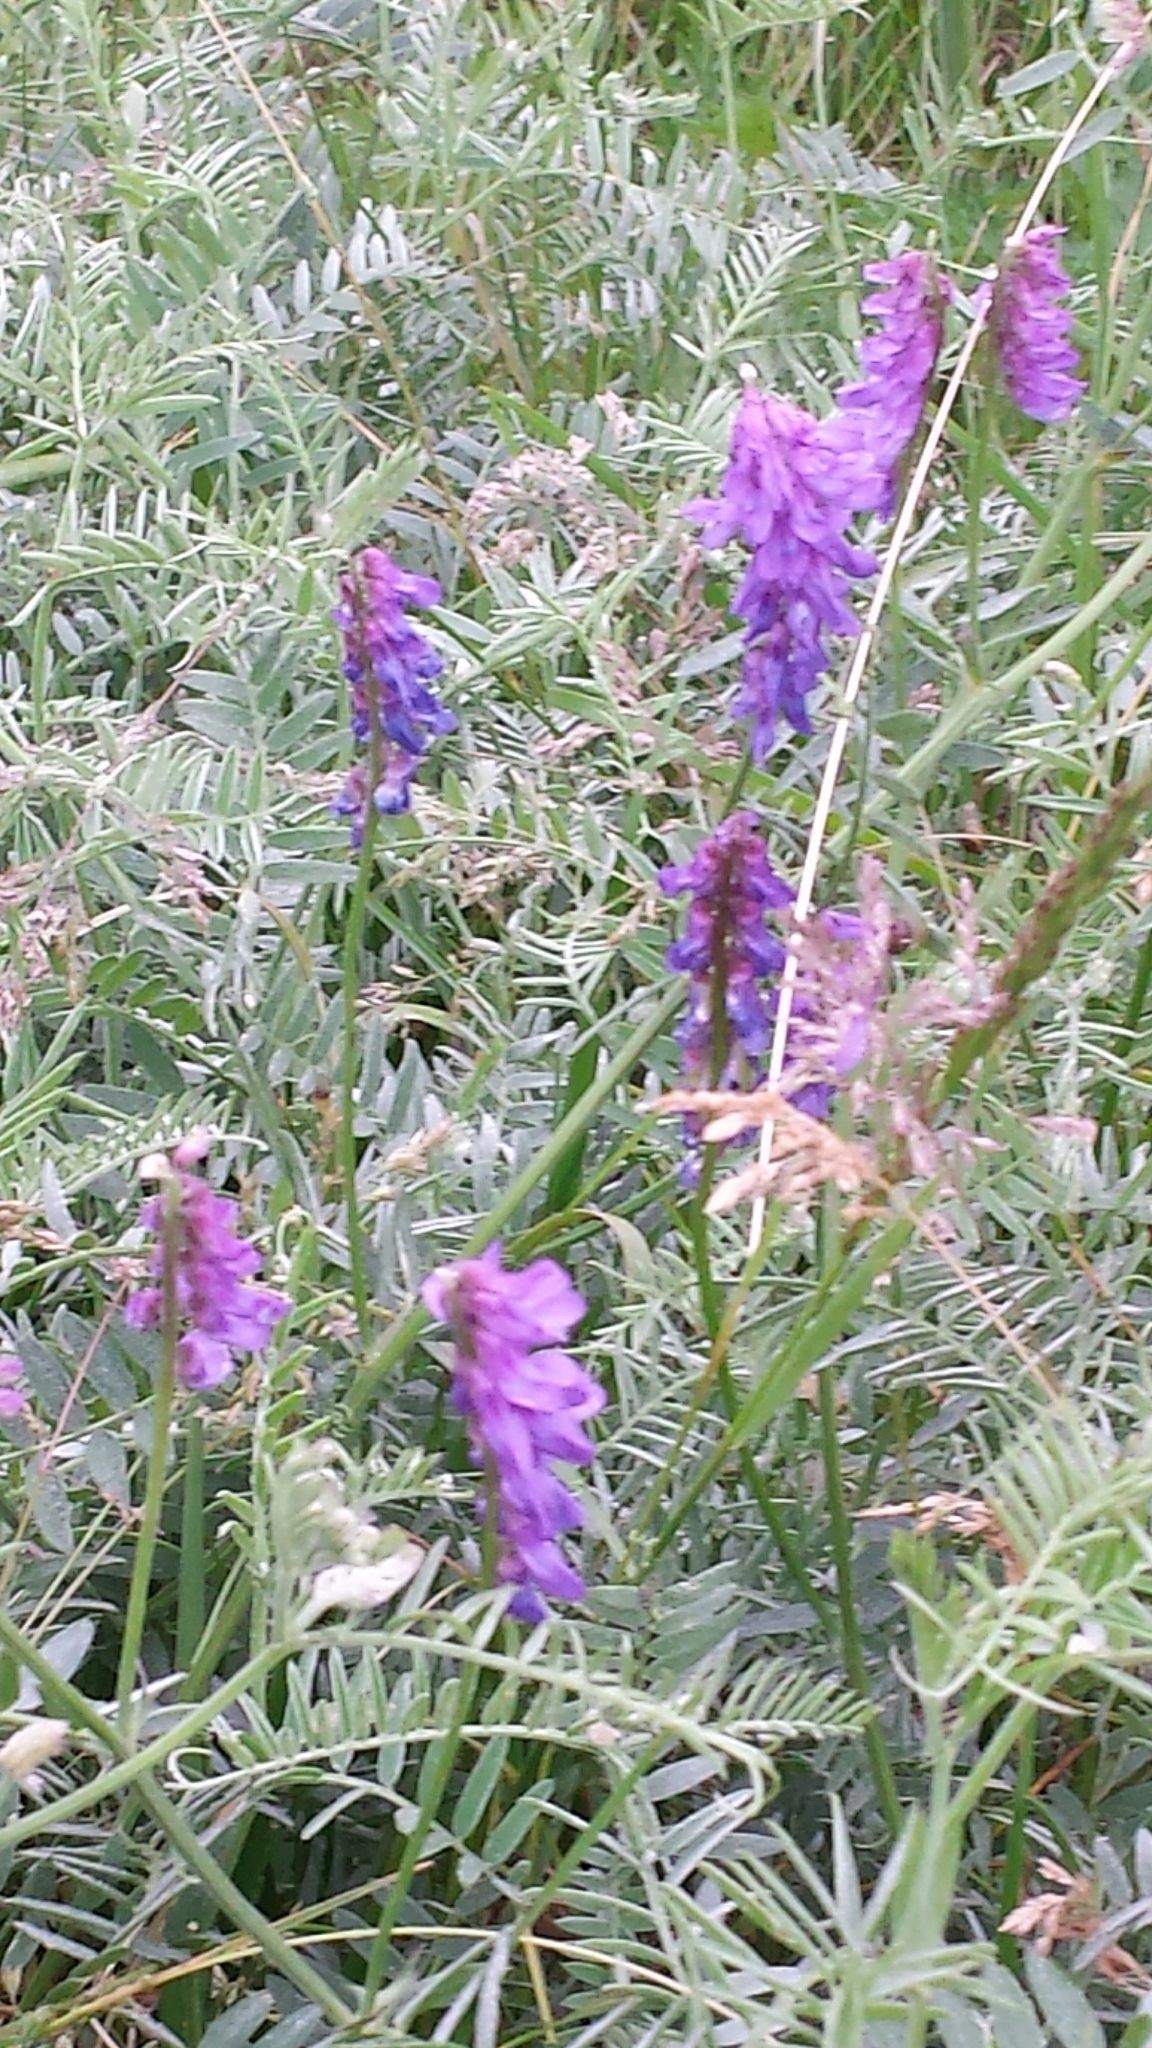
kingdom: Plantae
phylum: Tracheophyta
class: Magnoliopsida
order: Fabales
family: Fabaceae
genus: Vicia
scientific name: Vicia cracca
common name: Bird vetch
